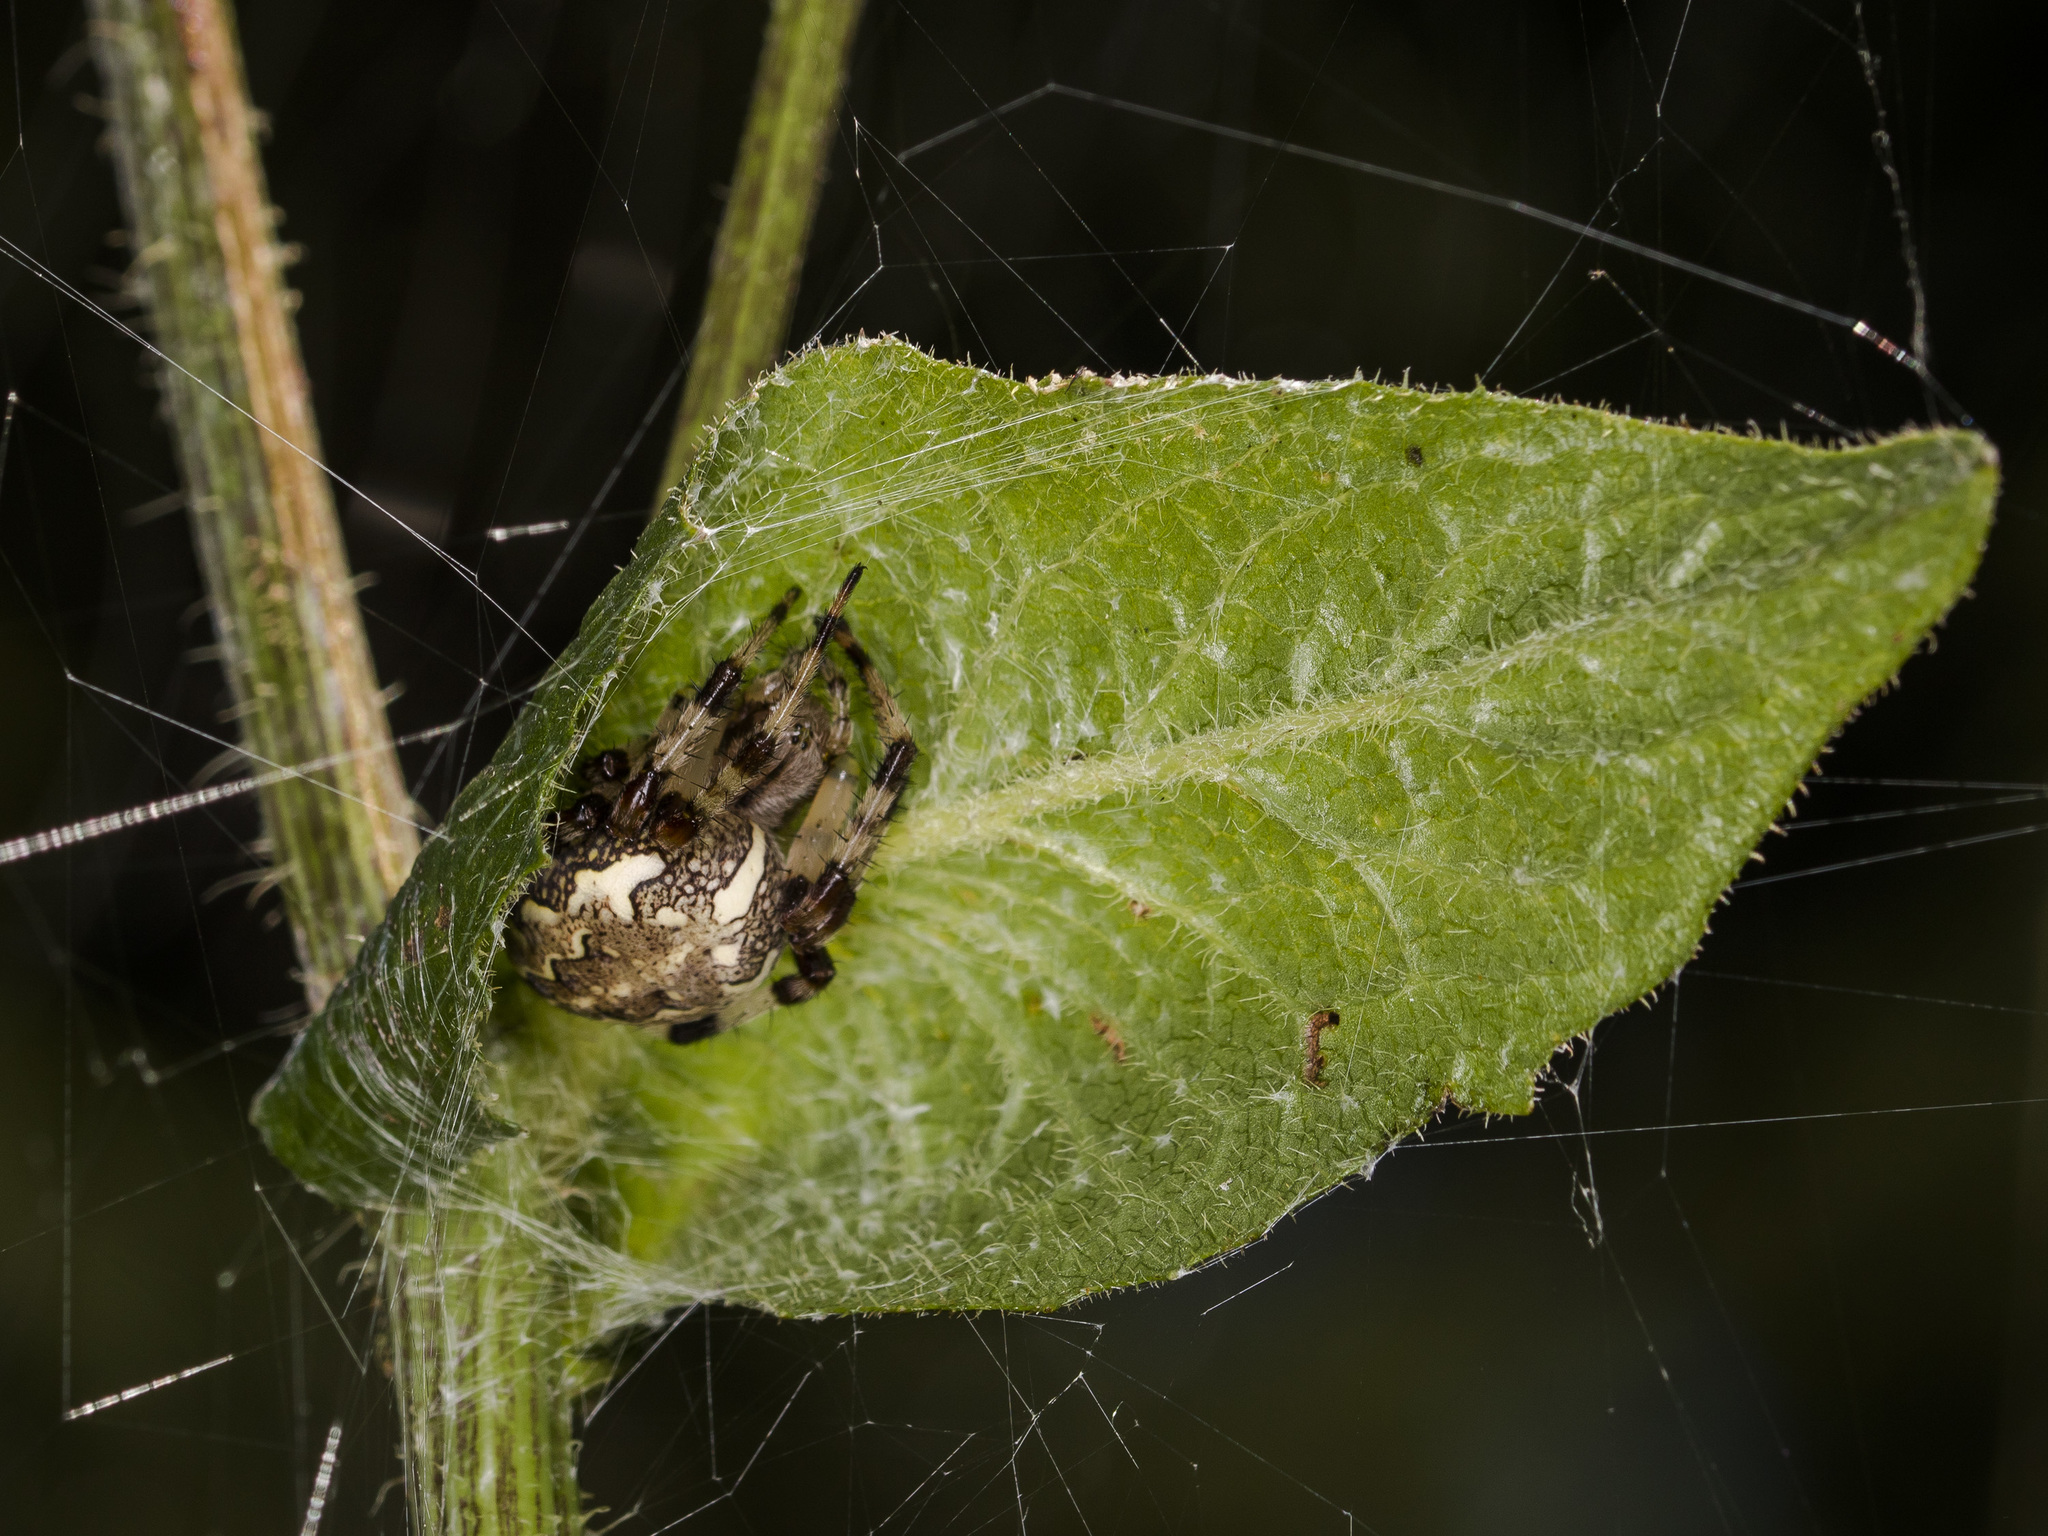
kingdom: Animalia
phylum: Arthropoda
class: Arachnida
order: Araneae
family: Araneidae
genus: Araneus
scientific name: Araneus marmoreus
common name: Marbled orbweaver
